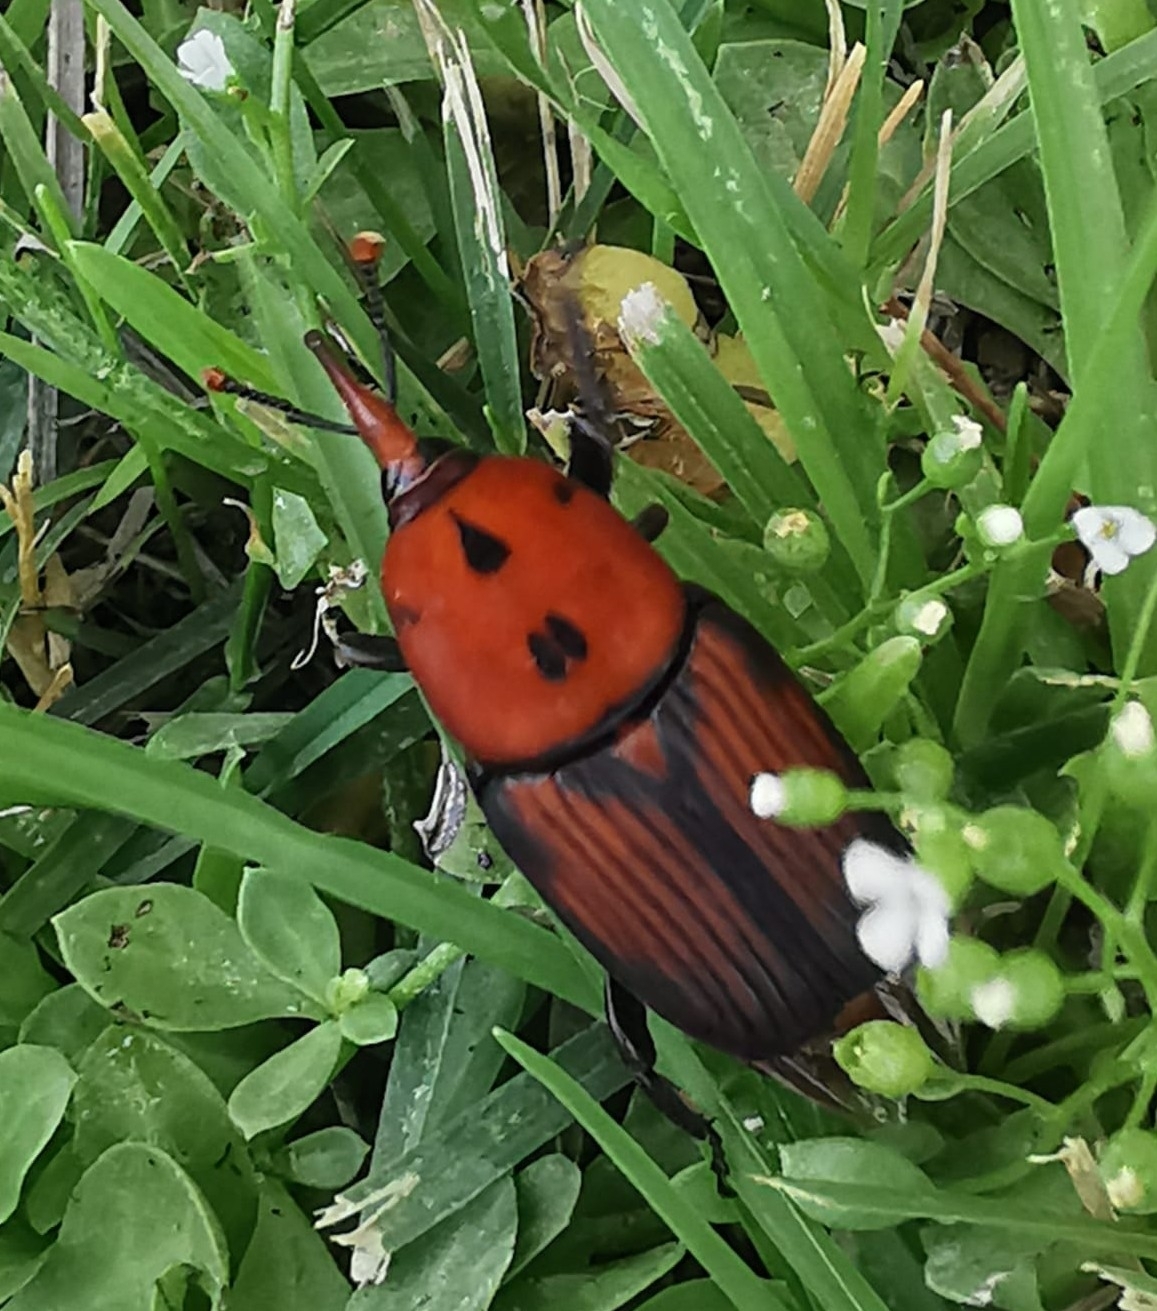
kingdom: Animalia
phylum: Arthropoda
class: Insecta
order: Coleoptera
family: Dryophthoridae
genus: Rhynchophorus
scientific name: Rhynchophorus ferrugineus
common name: Red palm weevil
